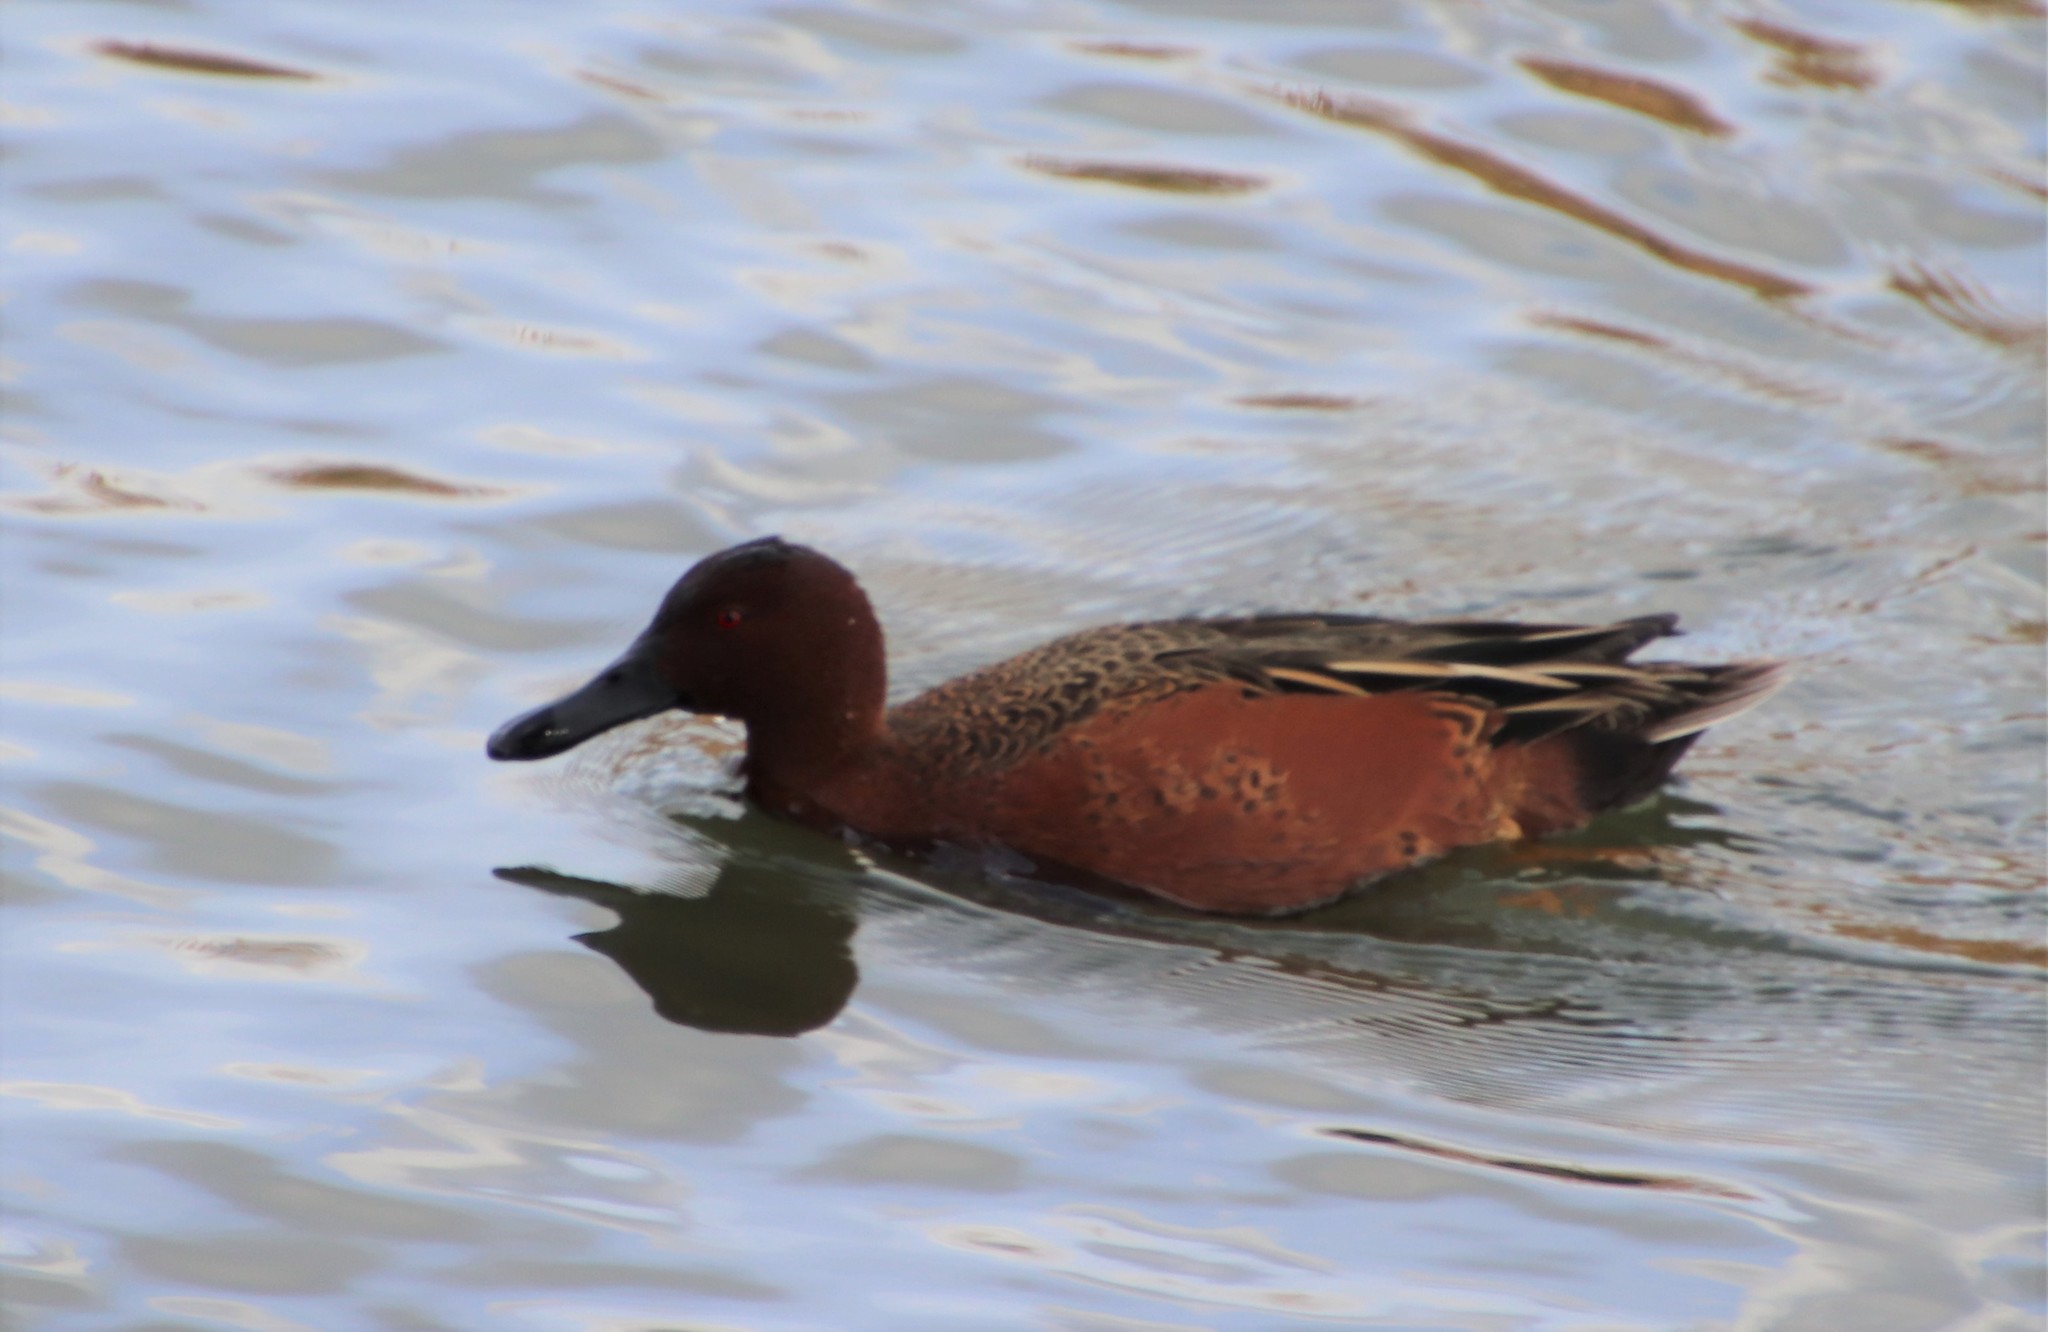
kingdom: Animalia
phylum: Chordata
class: Aves
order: Anseriformes
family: Anatidae
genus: Spatula
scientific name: Spatula cyanoptera
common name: Cinnamon teal
